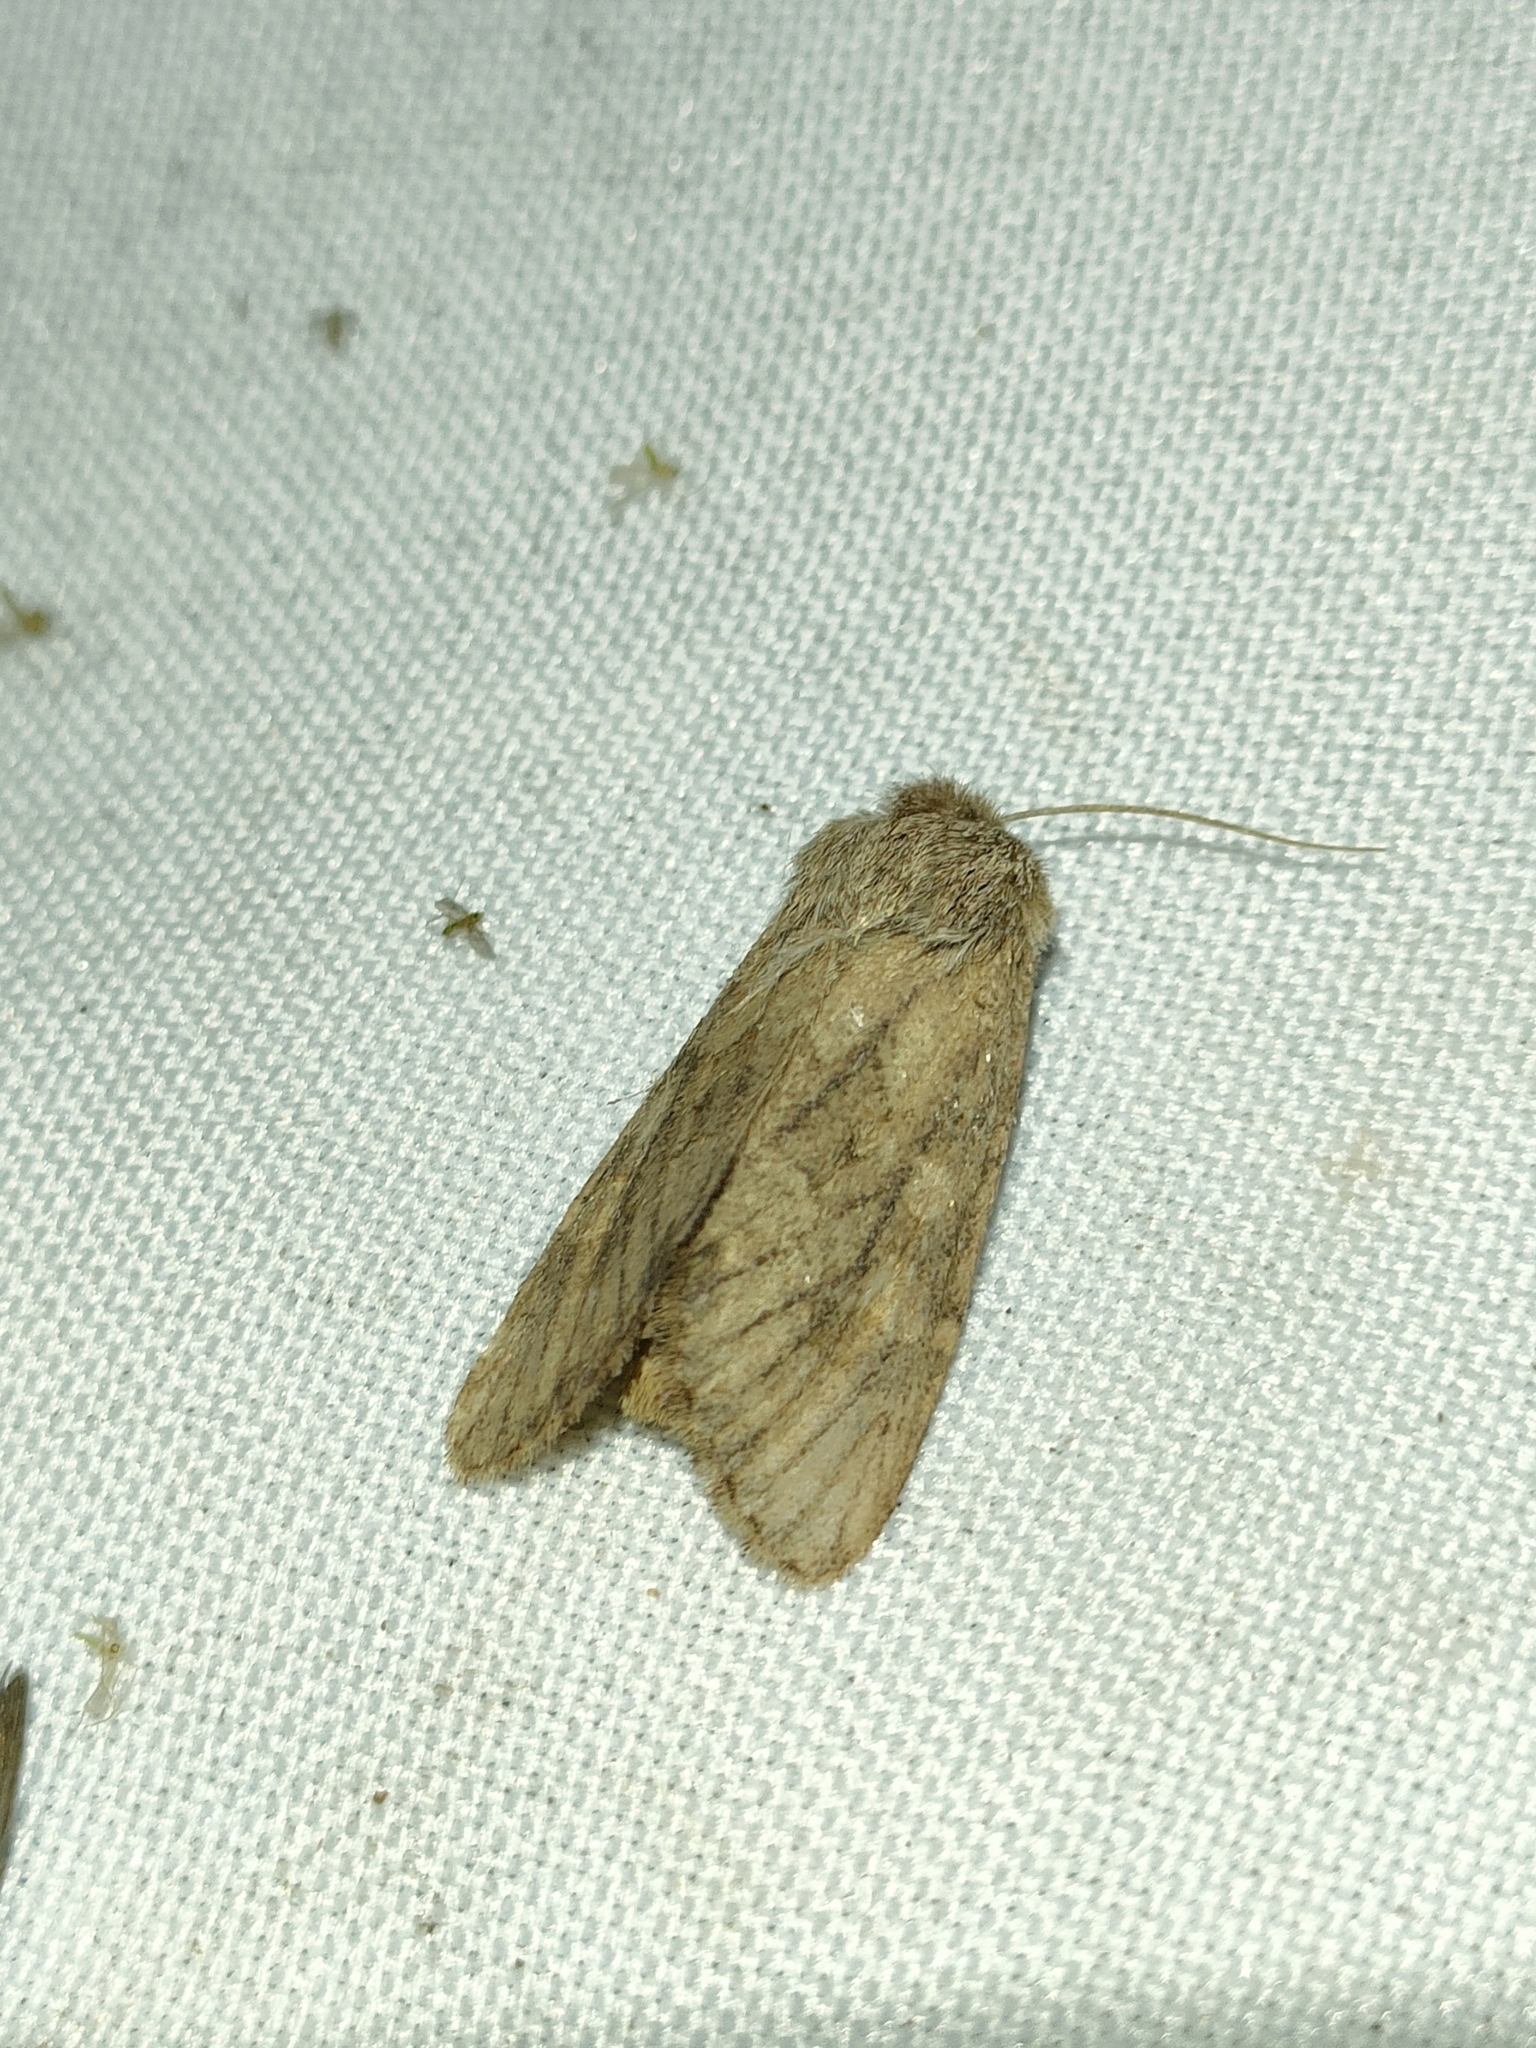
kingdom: Animalia
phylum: Arthropoda
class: Insecta
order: Lepidoptera
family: Noctuidae
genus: Luperina
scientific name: Luperina testacea
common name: Flounced rustic
